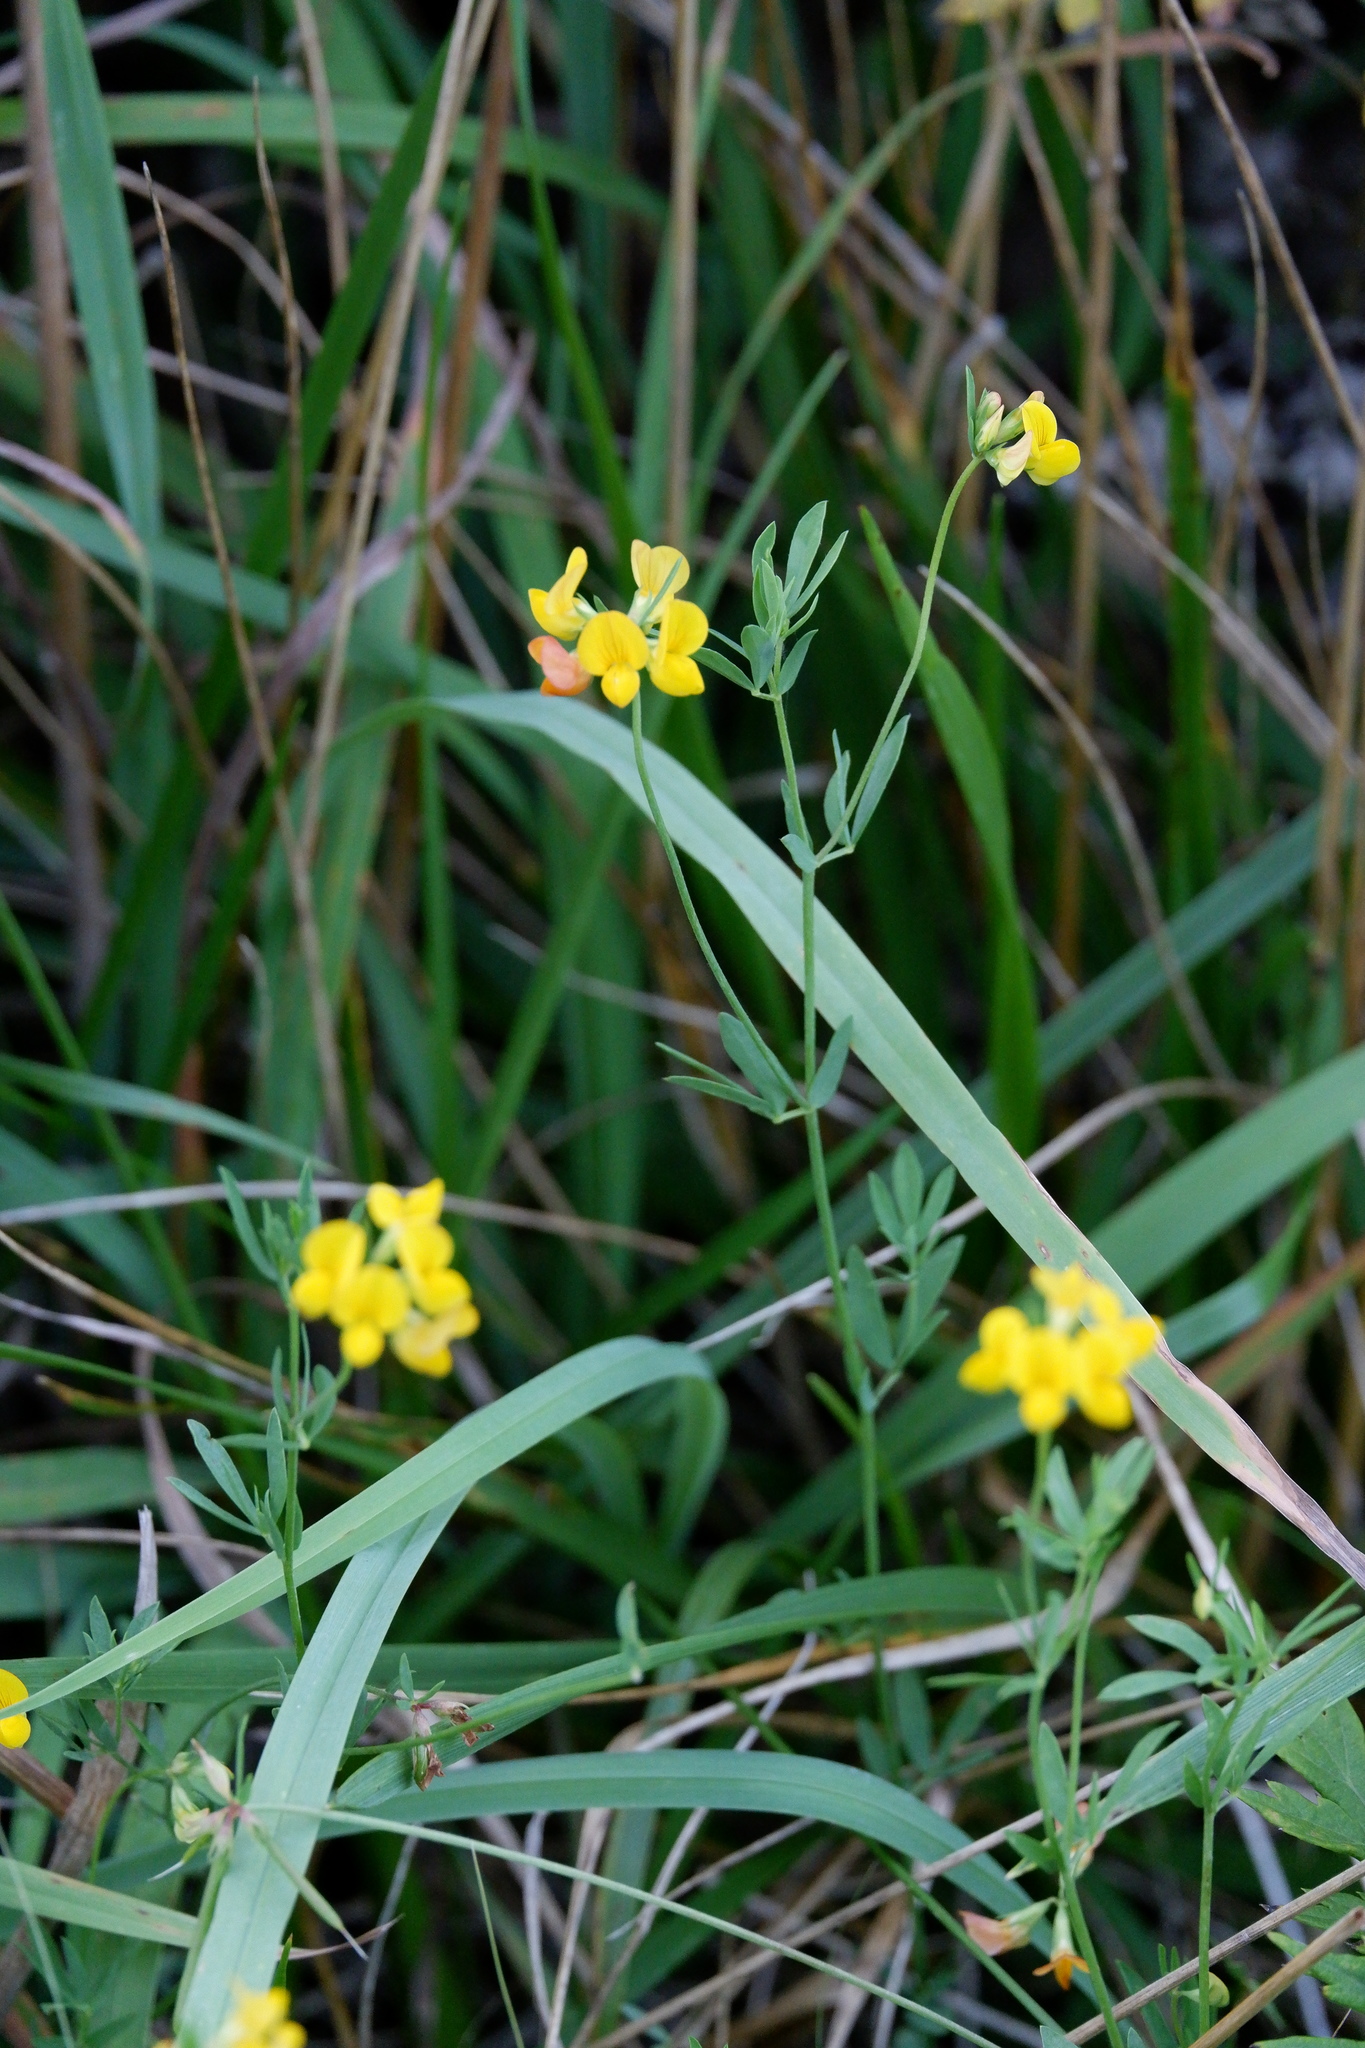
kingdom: Plantae
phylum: Tracheophyta
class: Magnoliopsida
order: Fabales
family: Fabaceae
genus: Lotus
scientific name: Lotus tenuis
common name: Narrow-leaved bird's-foot-trefoil
